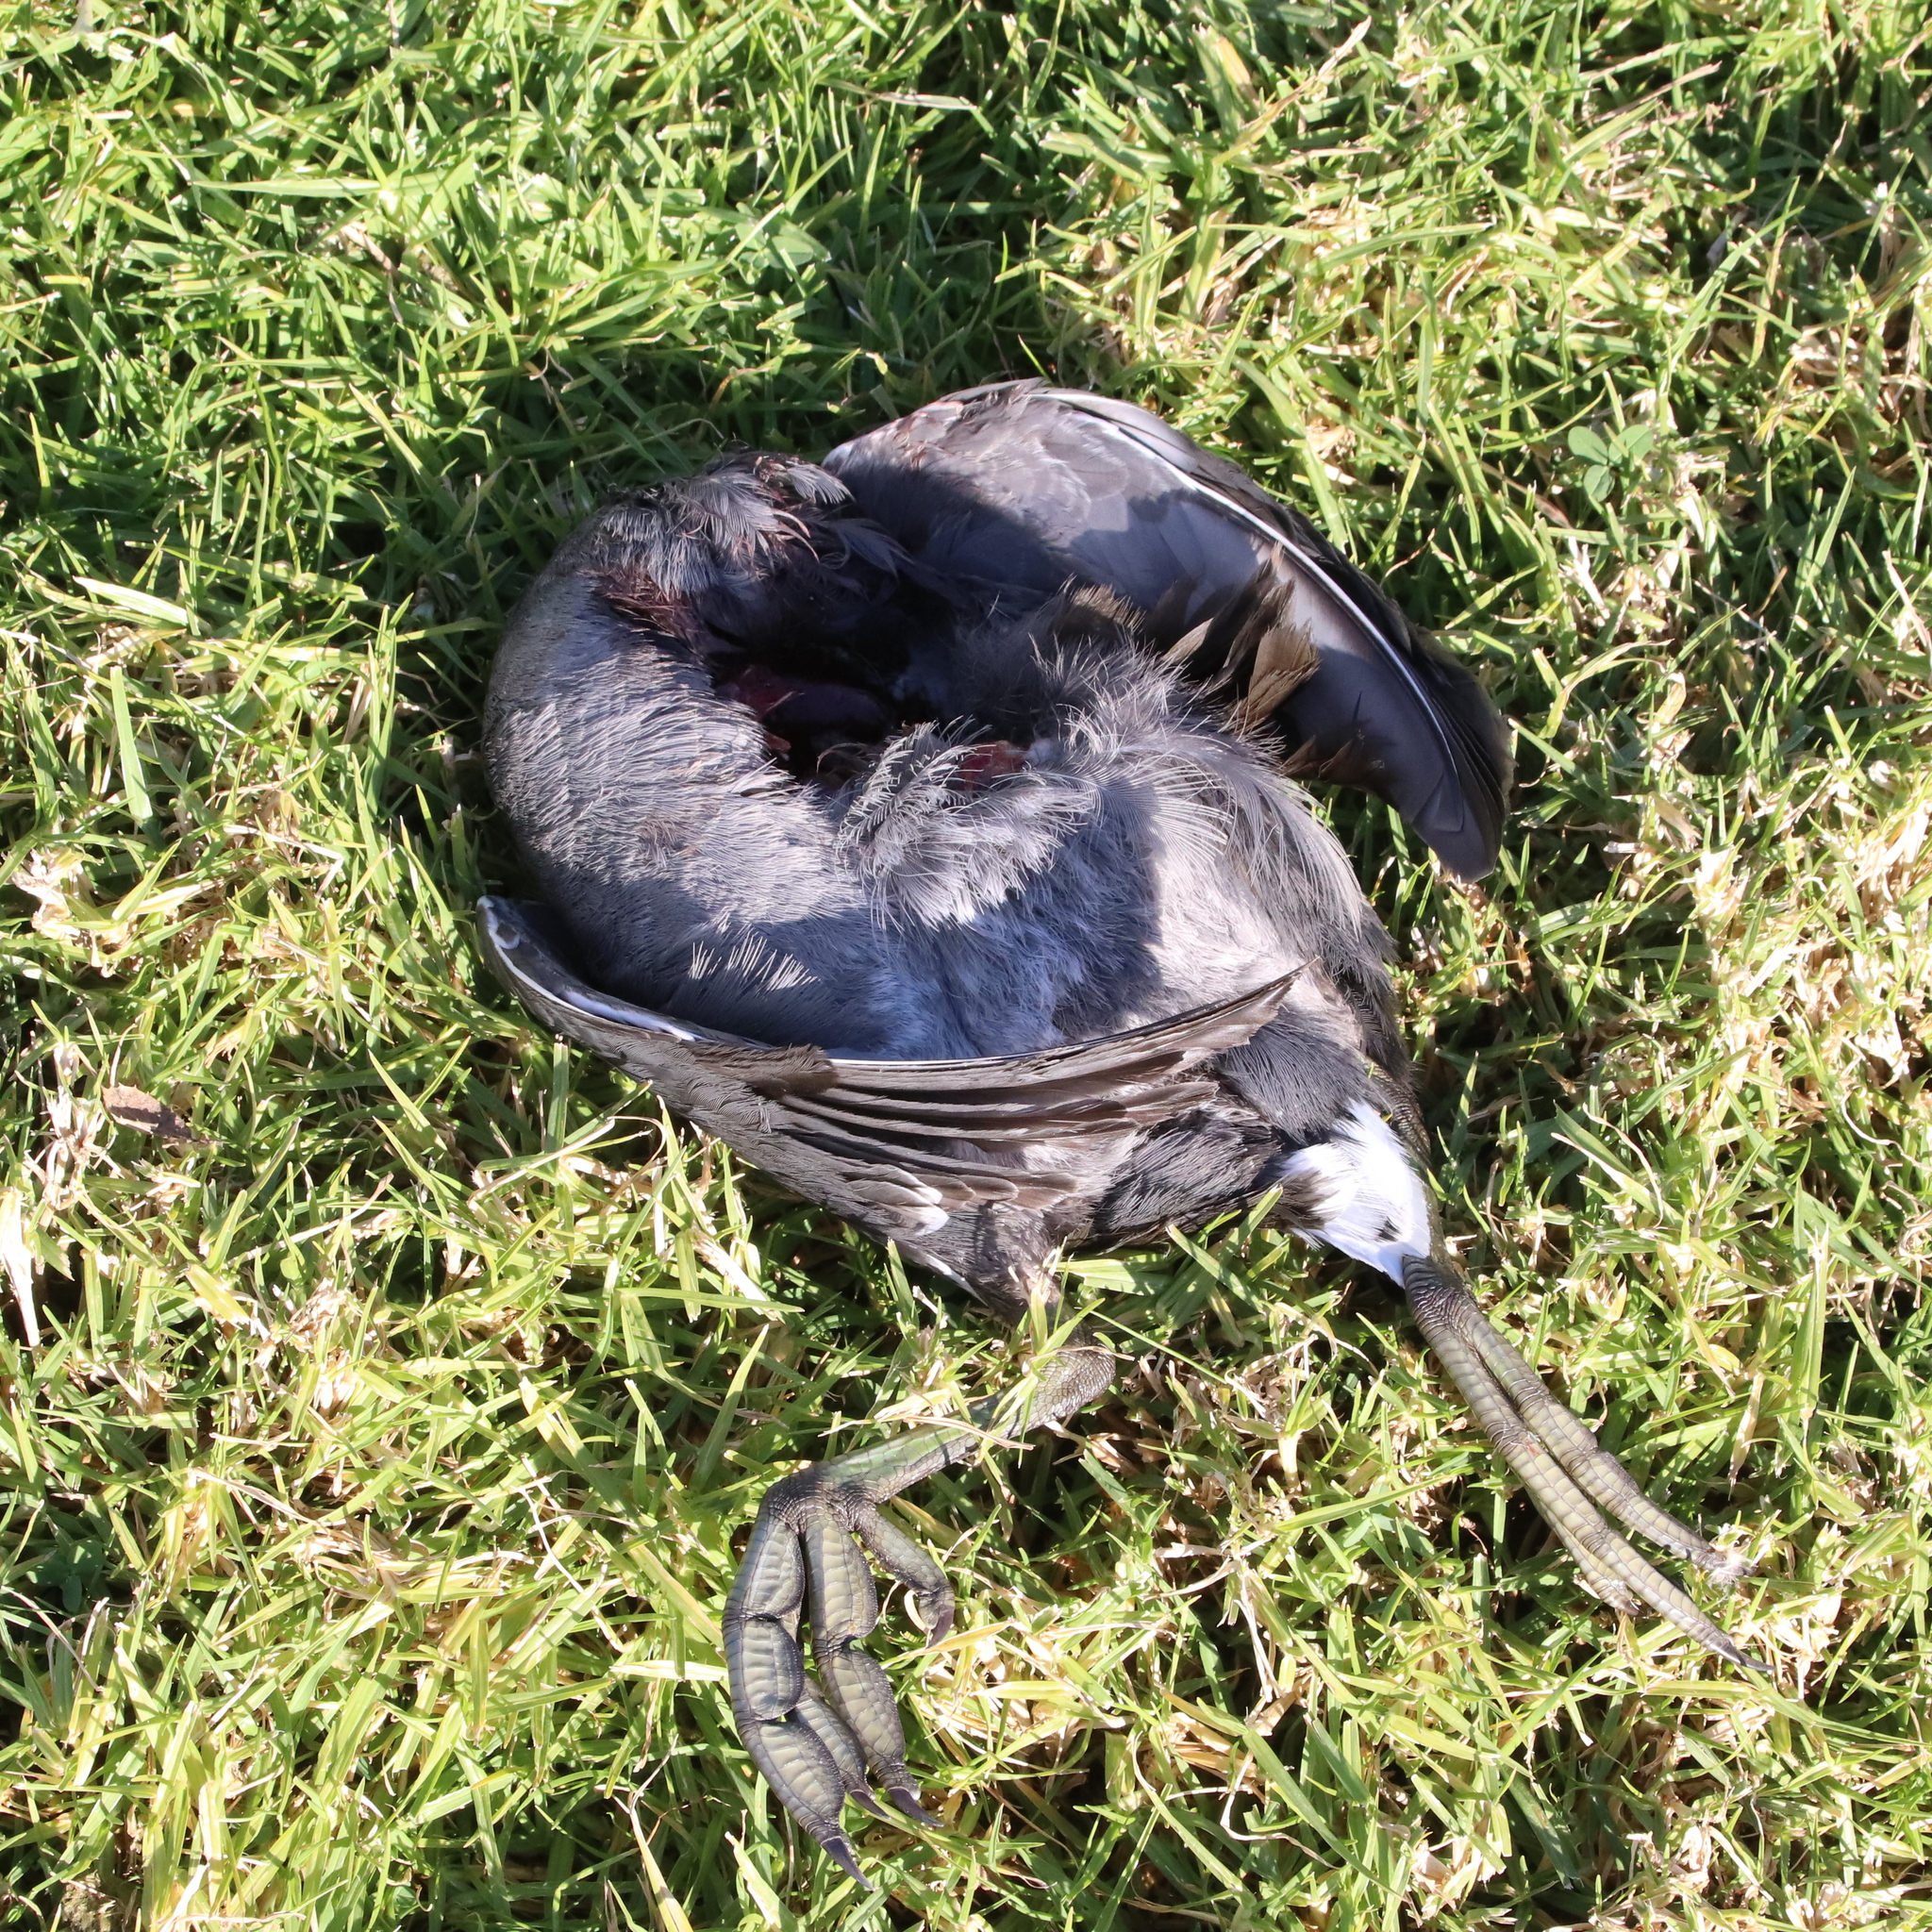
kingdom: Animalia
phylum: Chordata
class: Aves
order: Gruiformes
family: Rallidae
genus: Fulica
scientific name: Fulica americana
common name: American coot
